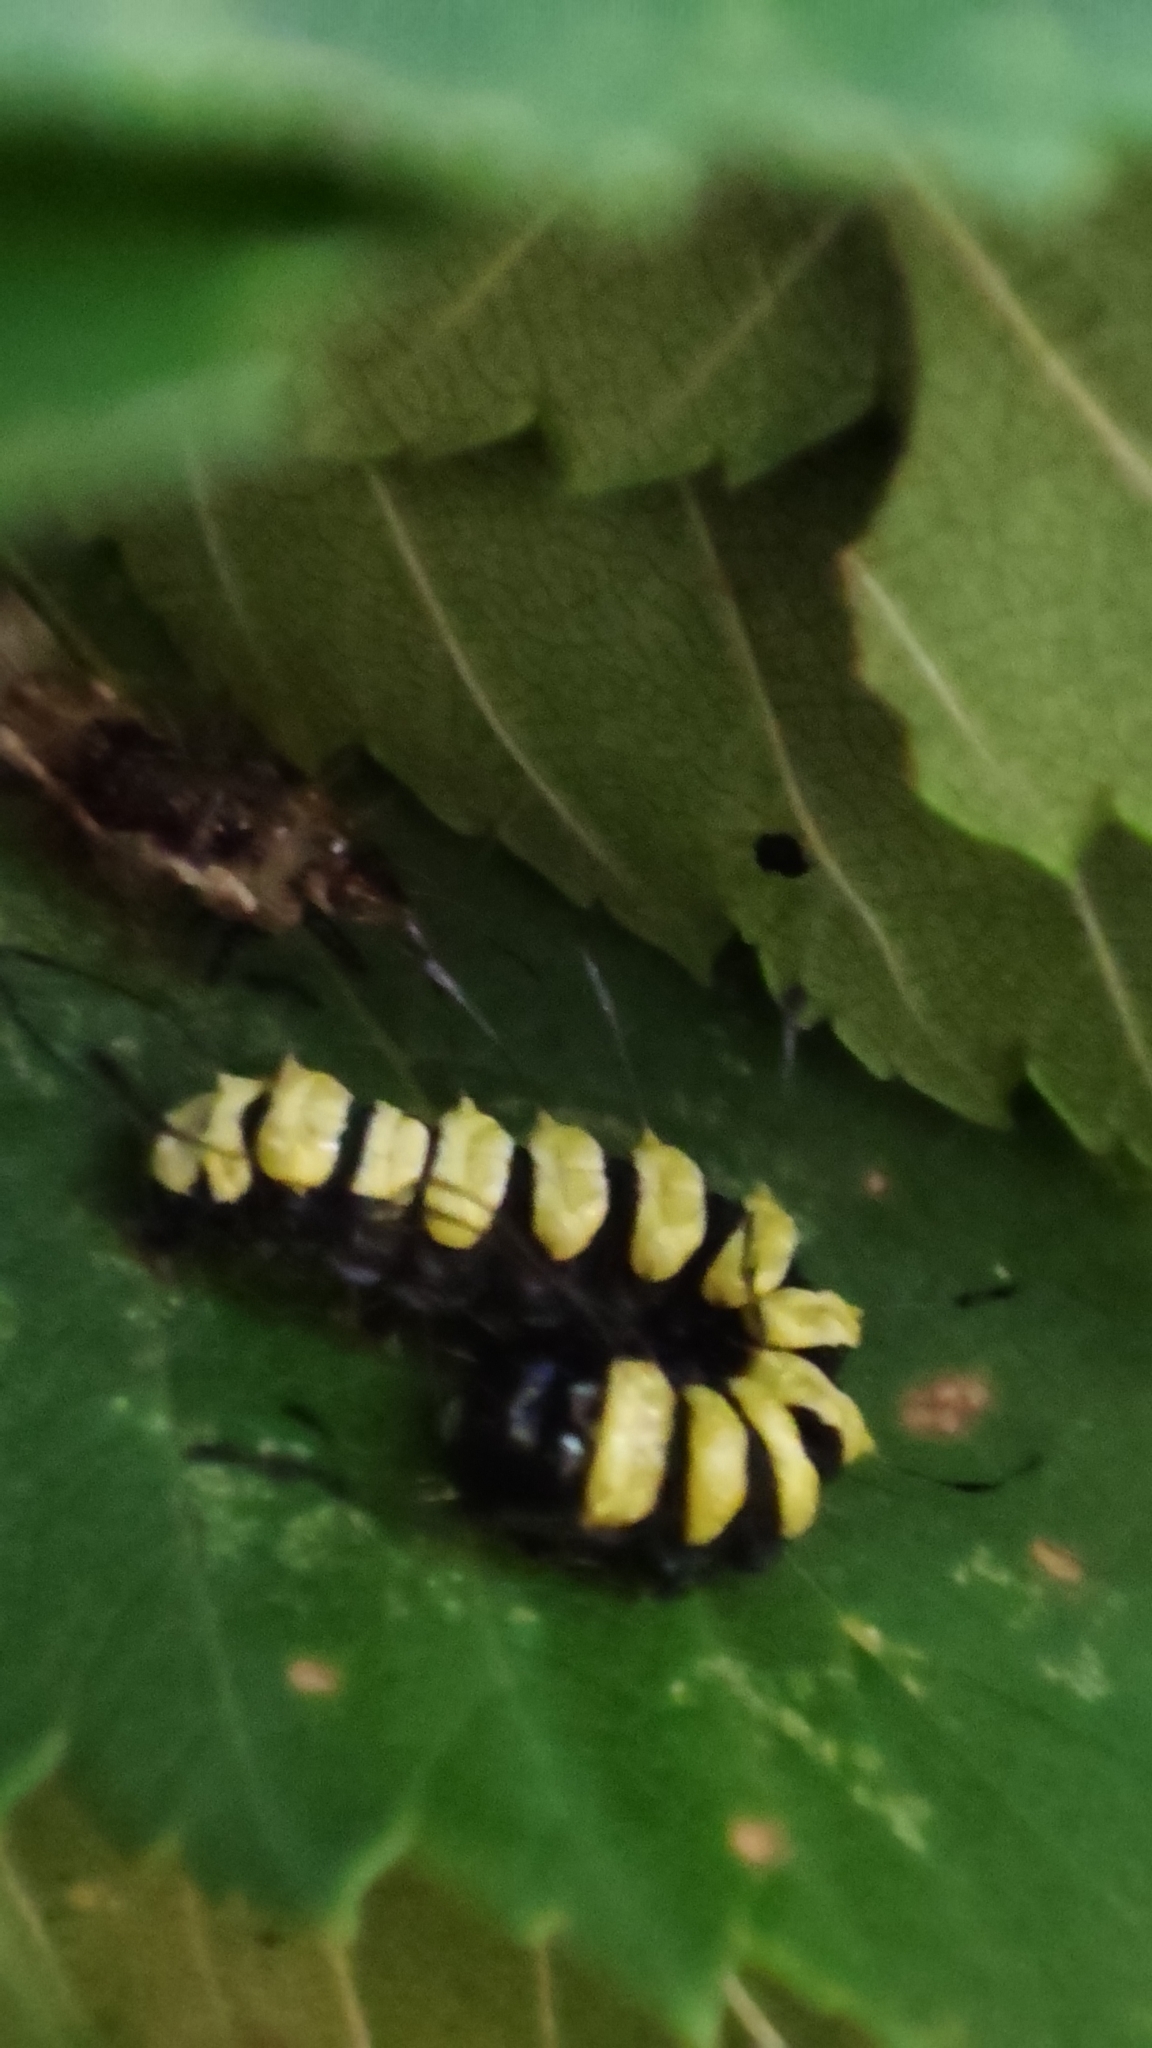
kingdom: Animalia
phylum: Arthropoda
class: Insecta
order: Lepidoptera
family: Noctuidae
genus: Acronicta
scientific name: Acronicta alni
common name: Alder moth
